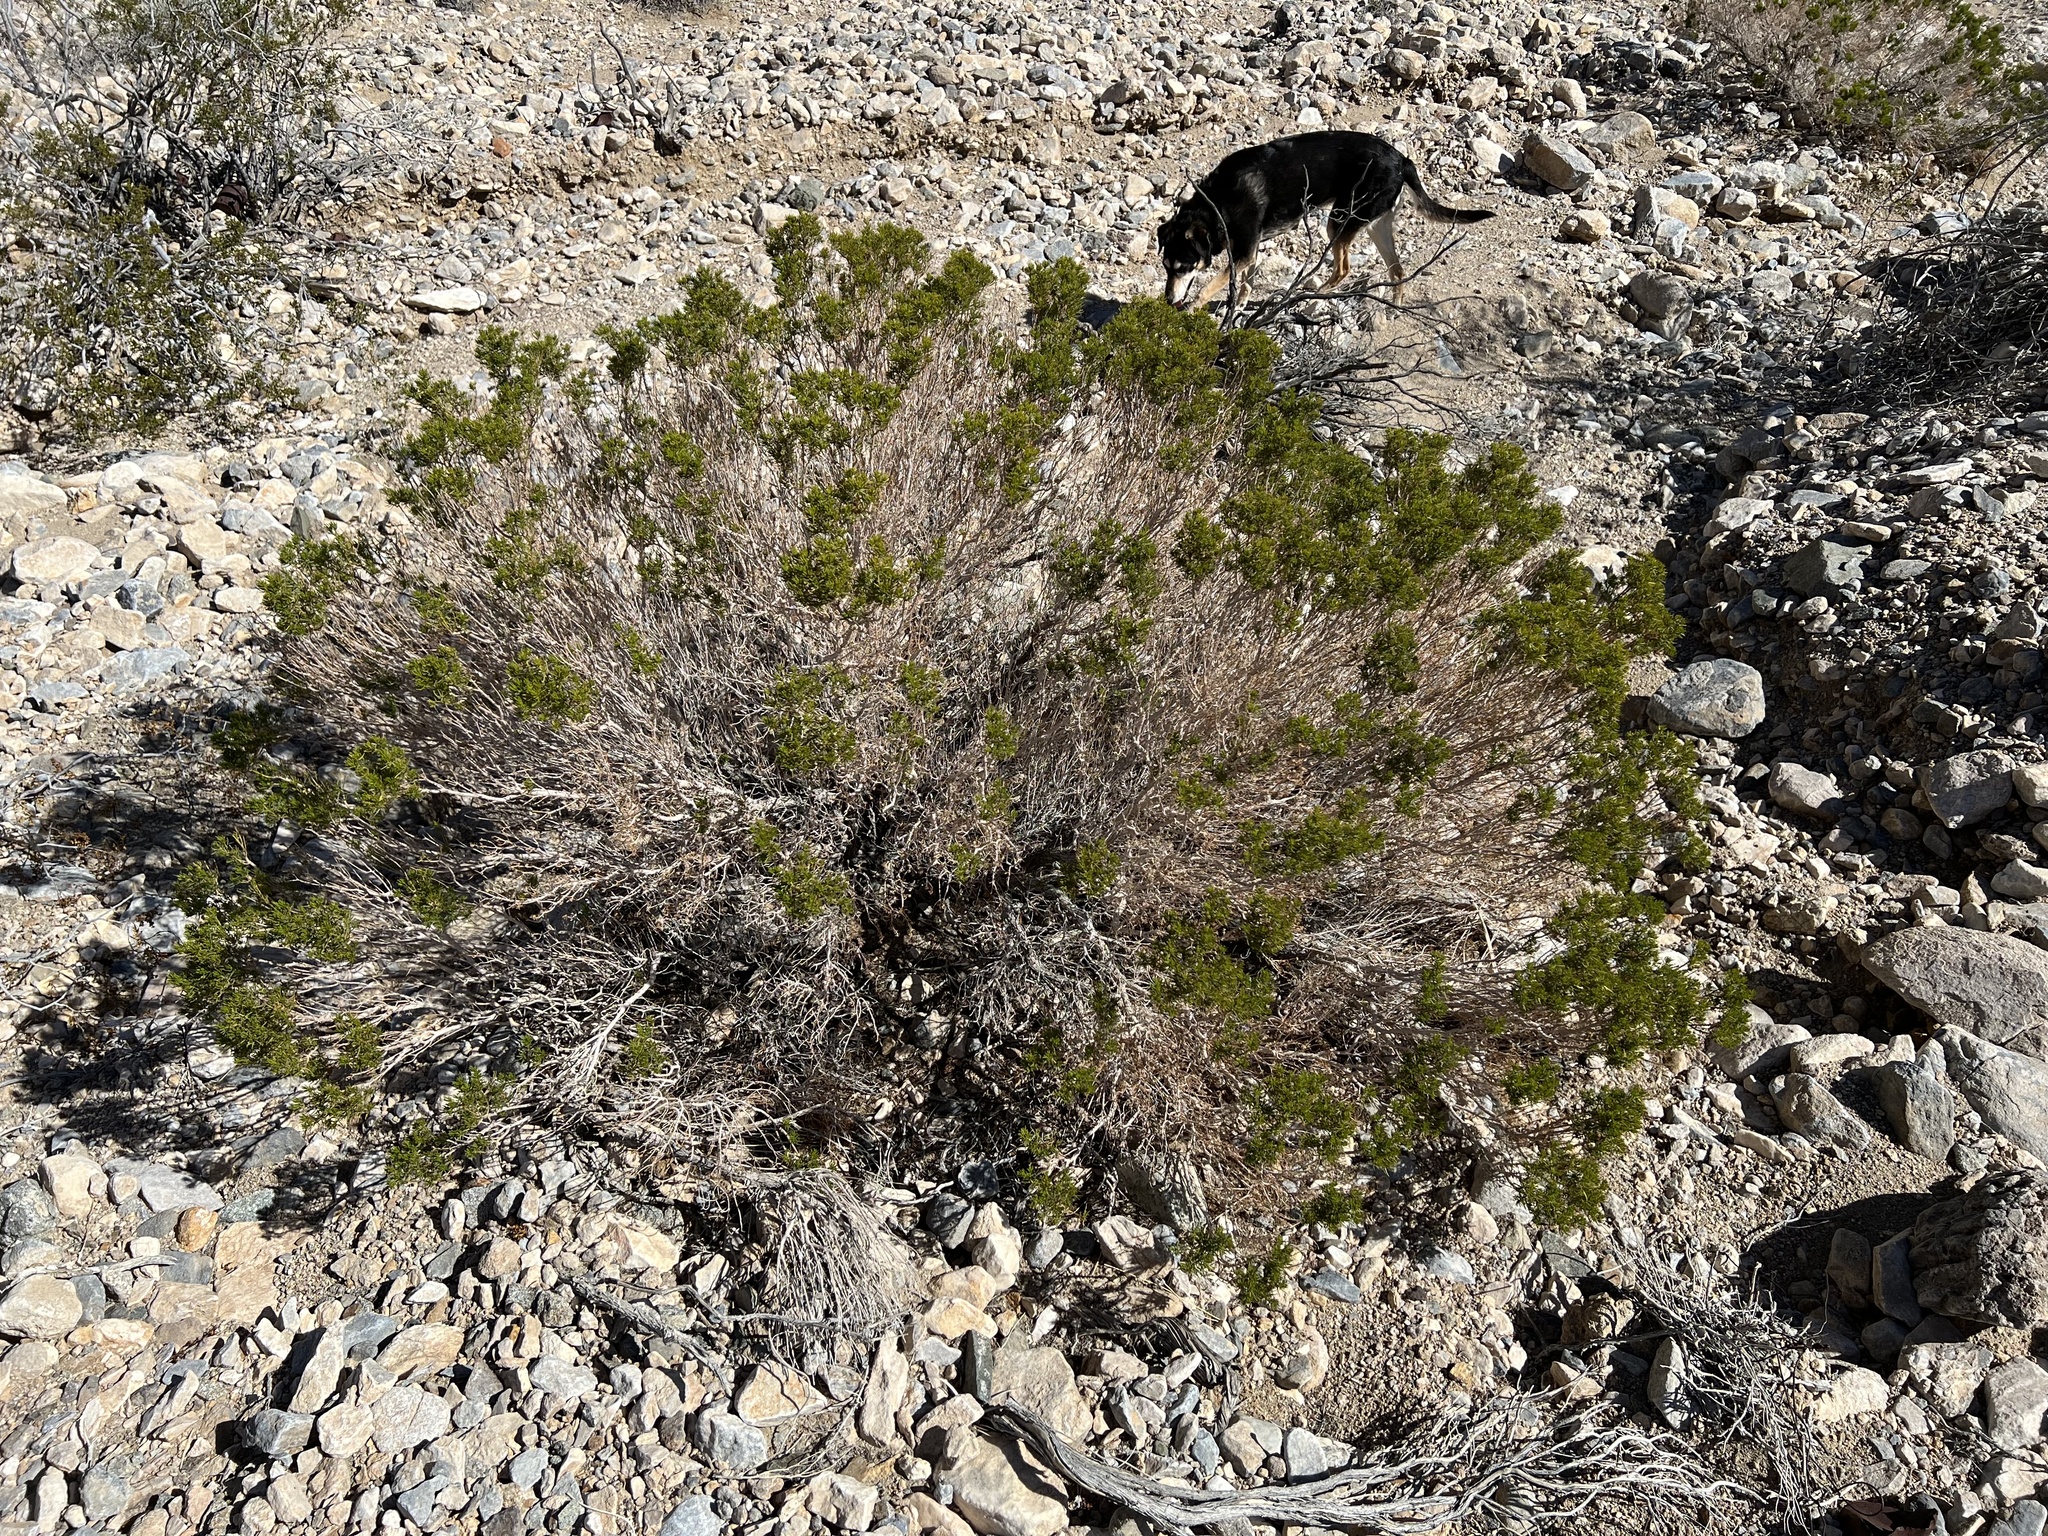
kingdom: Plantae
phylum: Tracheophyta
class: Magnoliopsida
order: Asterales
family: Asteraceae
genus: Peucephyllum
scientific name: Peucephyllum schottii
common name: Pygmy-cedar
